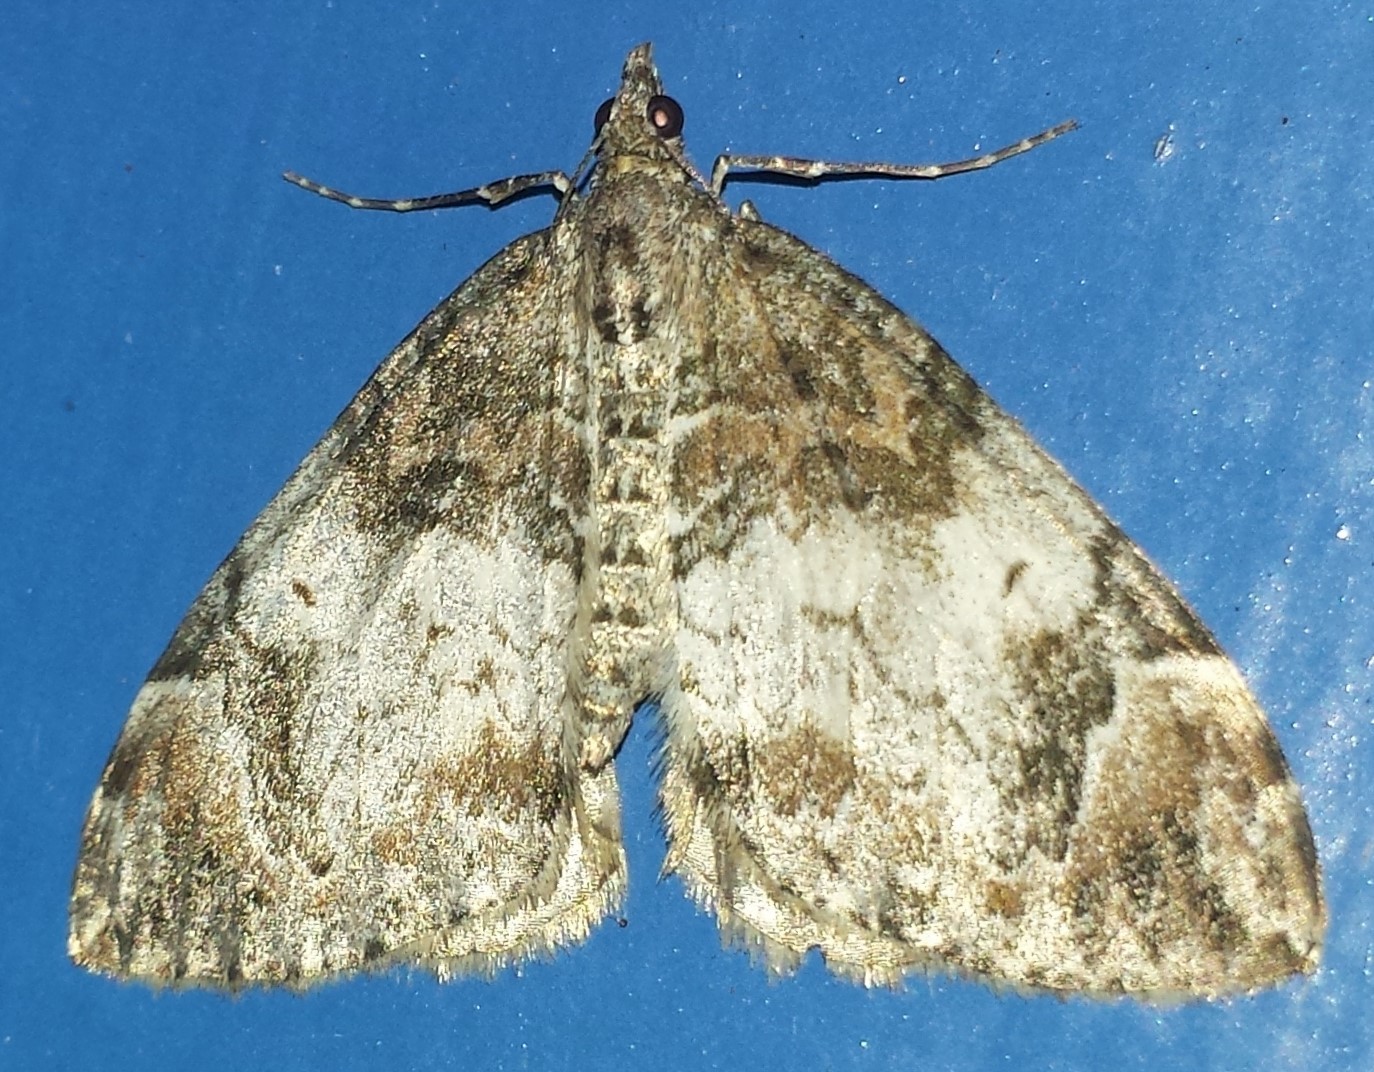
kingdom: Animalia
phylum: Arthropoda
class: Insecta
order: Lepidoptera
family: Geometridae
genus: Dysstroma
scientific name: Dysstroma truncata
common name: Common marbled carpet
